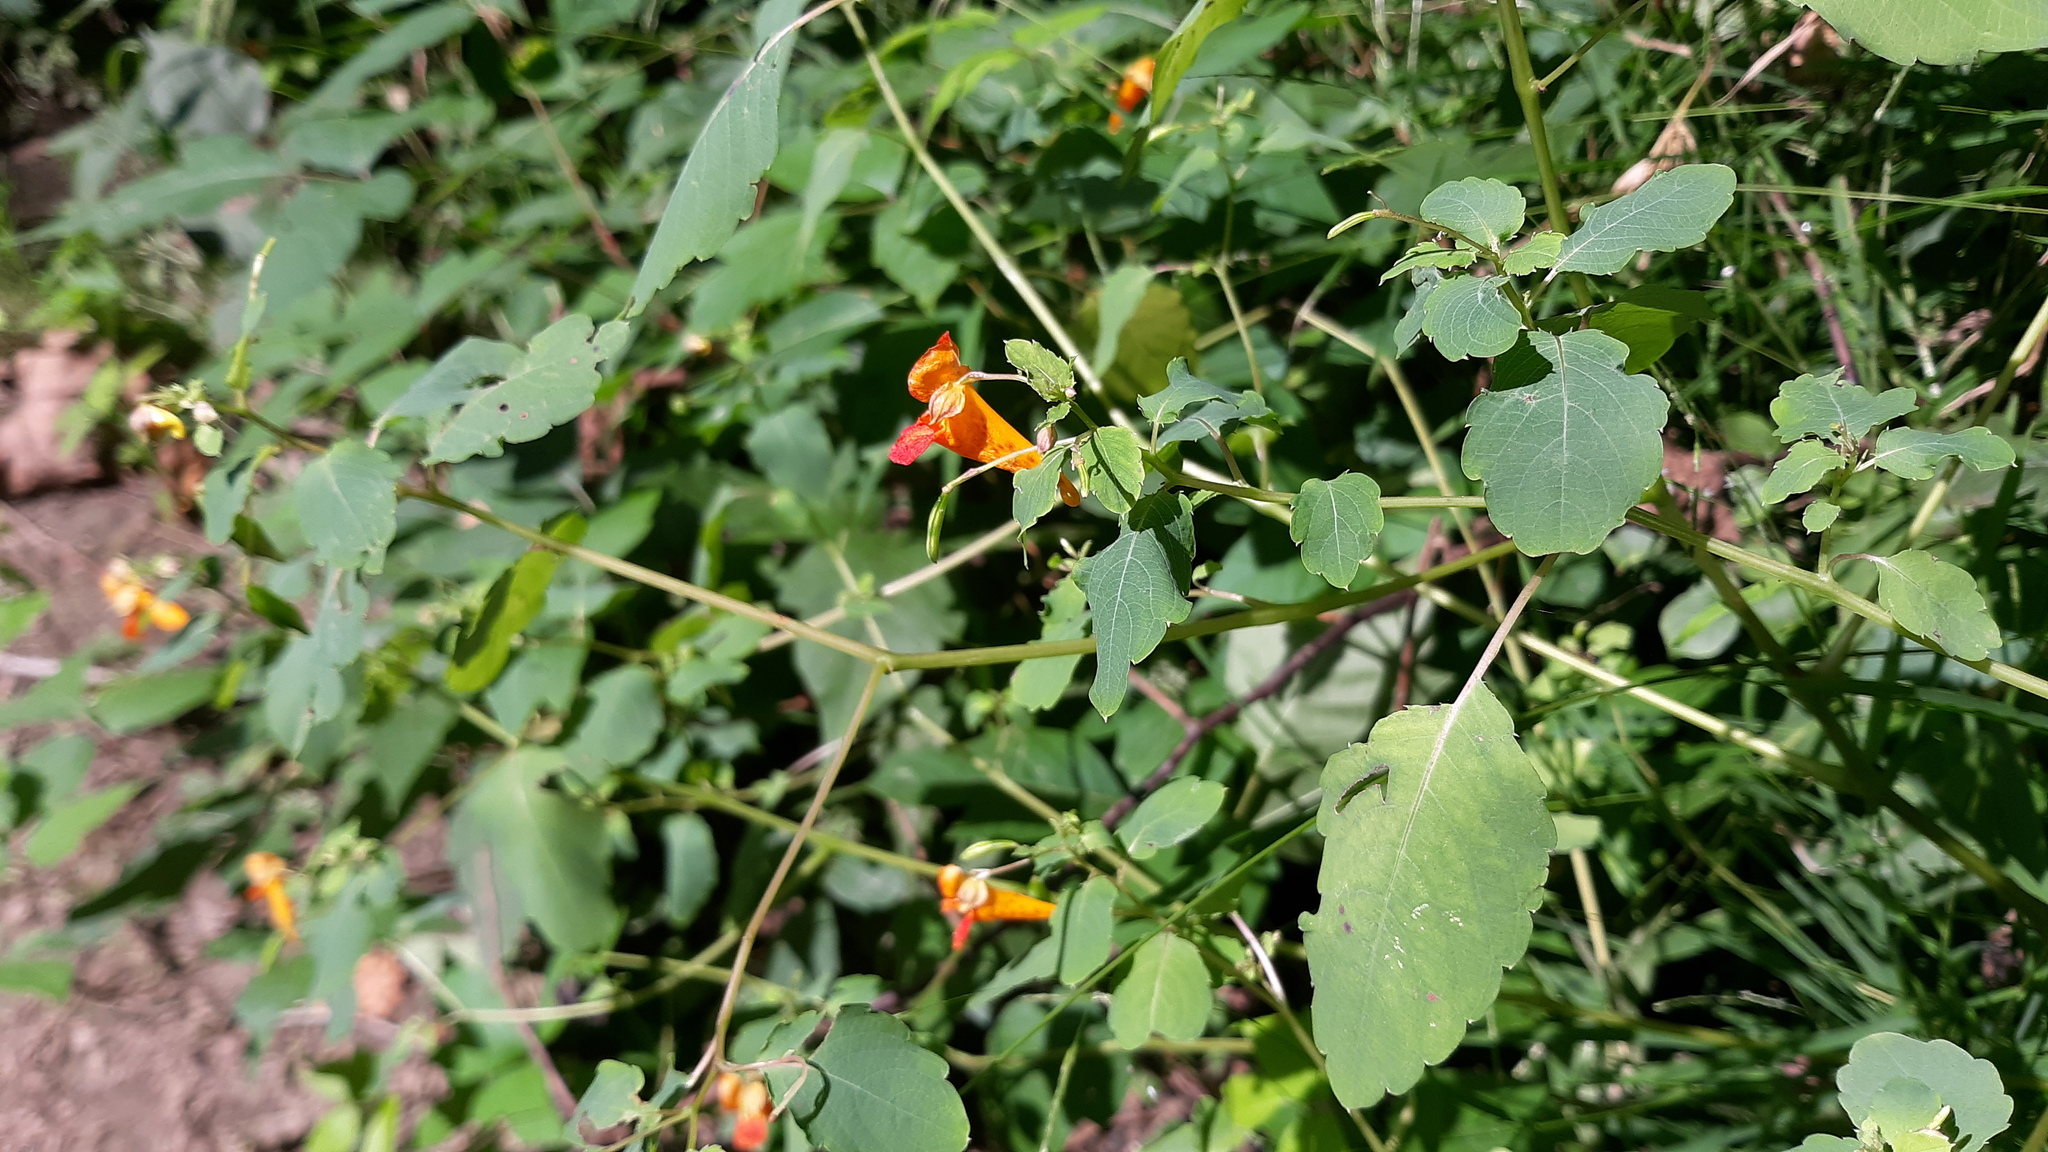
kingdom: Plantae
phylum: Tracheophyta
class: Magnoliopsida
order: Ericales
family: Balsaminaceae
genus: Impatiens
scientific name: Impatiens capensis
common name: Orange balsam
